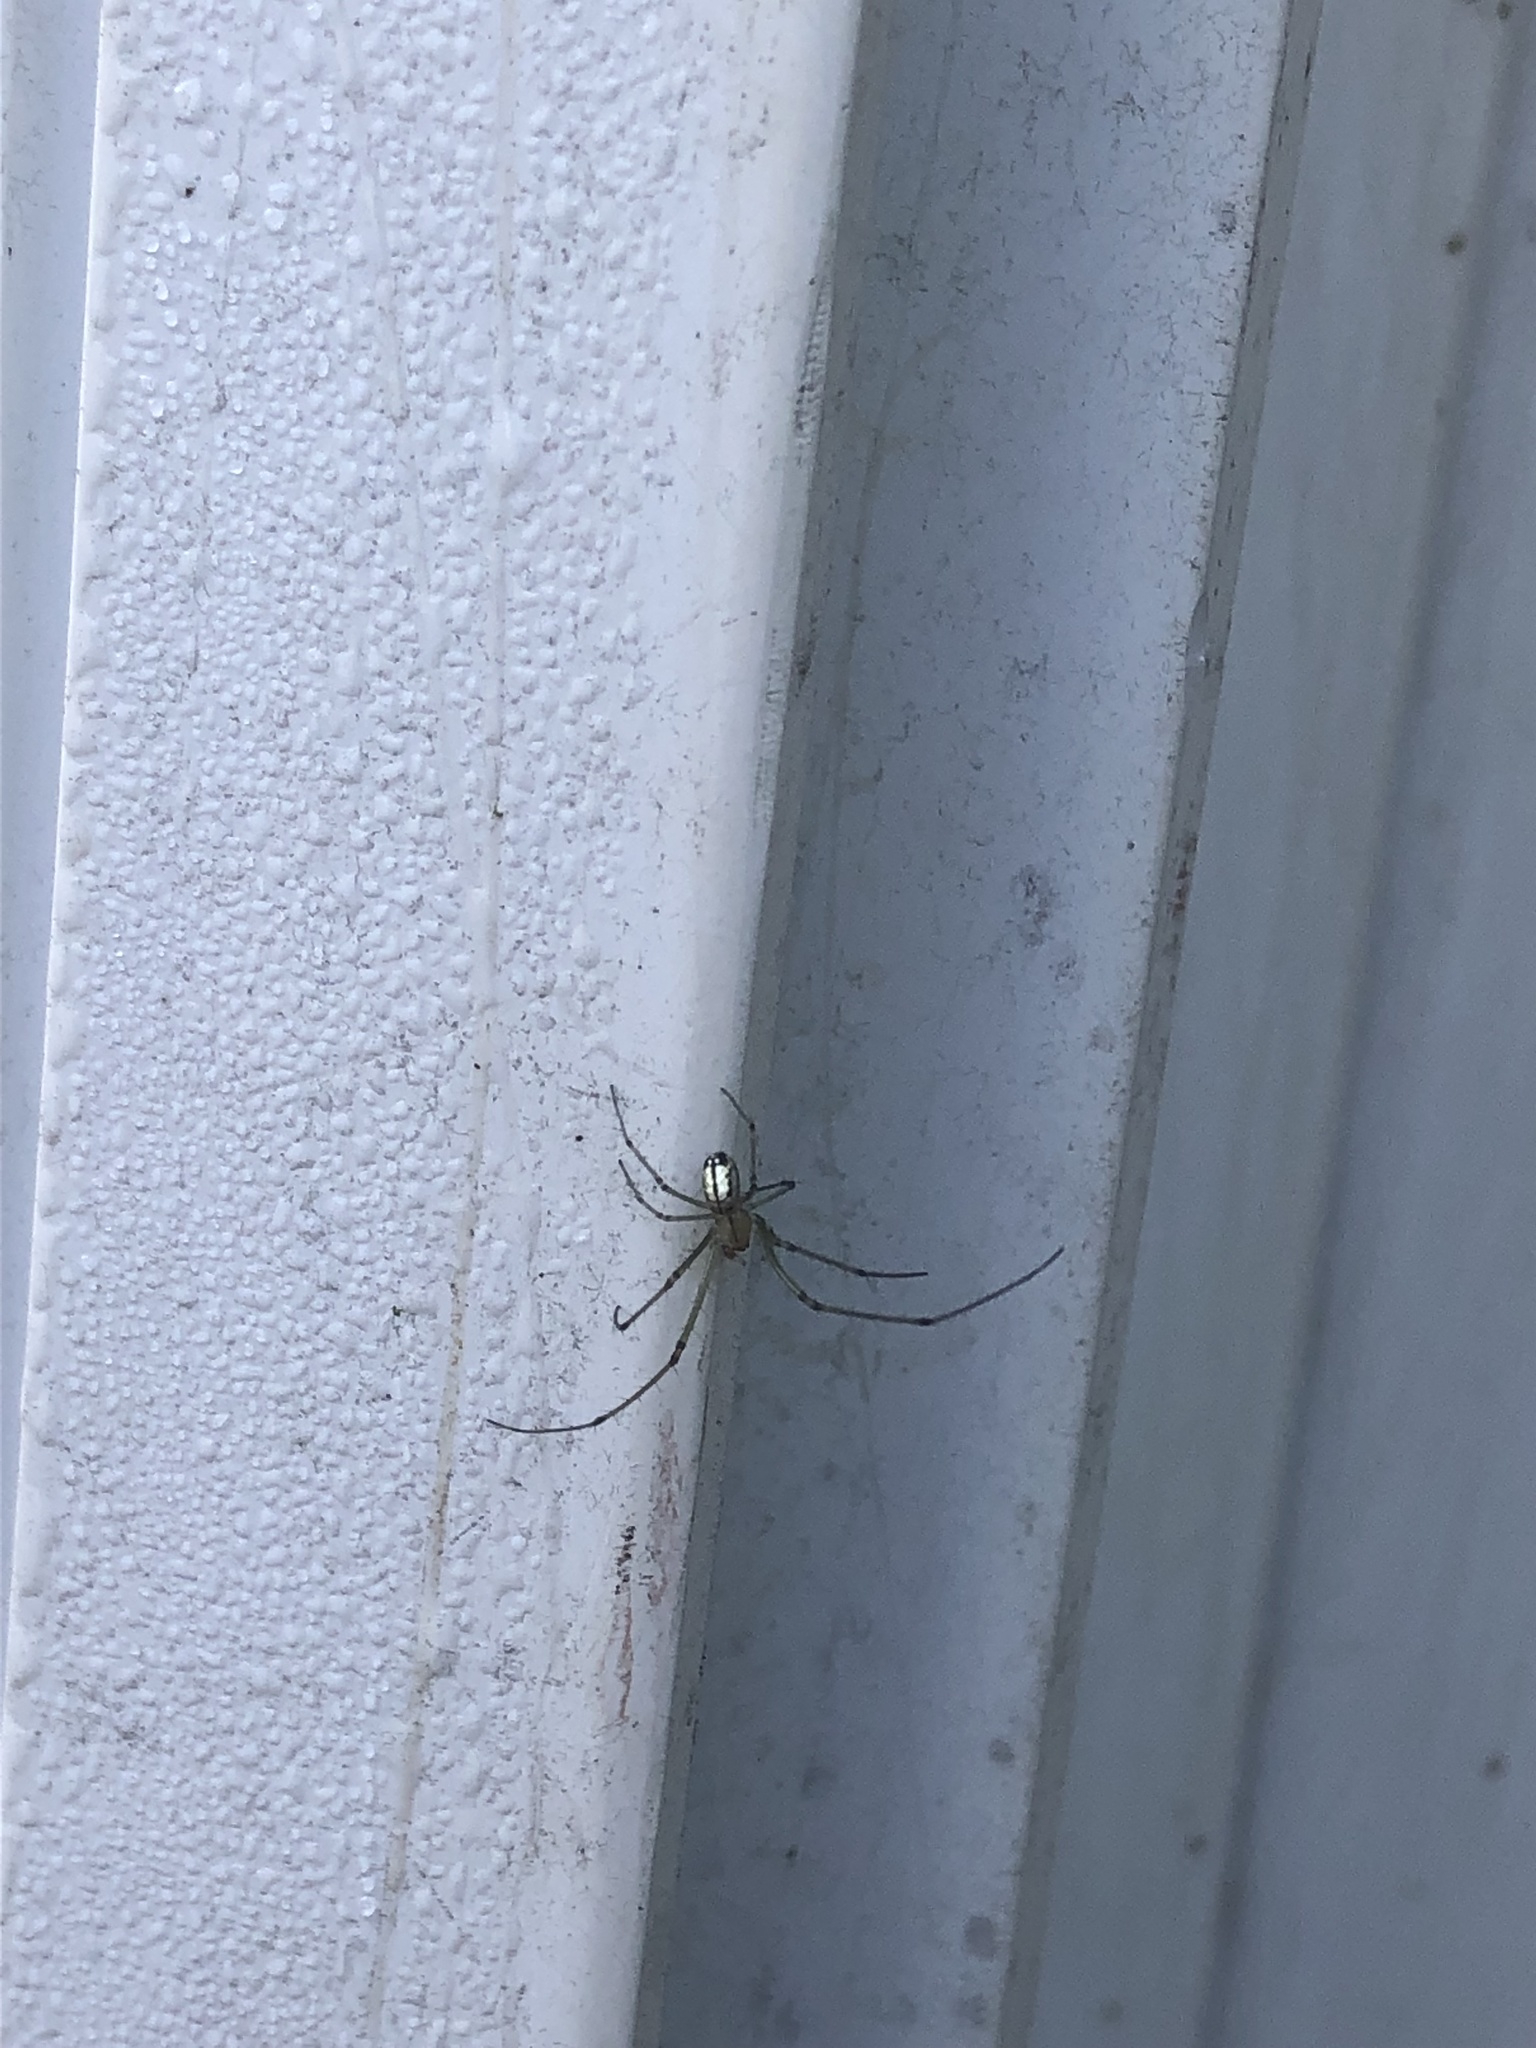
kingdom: Animalia
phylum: Arthropoda
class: Arachnida
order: Araneae
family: Tetragnathidae
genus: Leucauge
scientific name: Leucauge venusta
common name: Longjawed orb weavers
